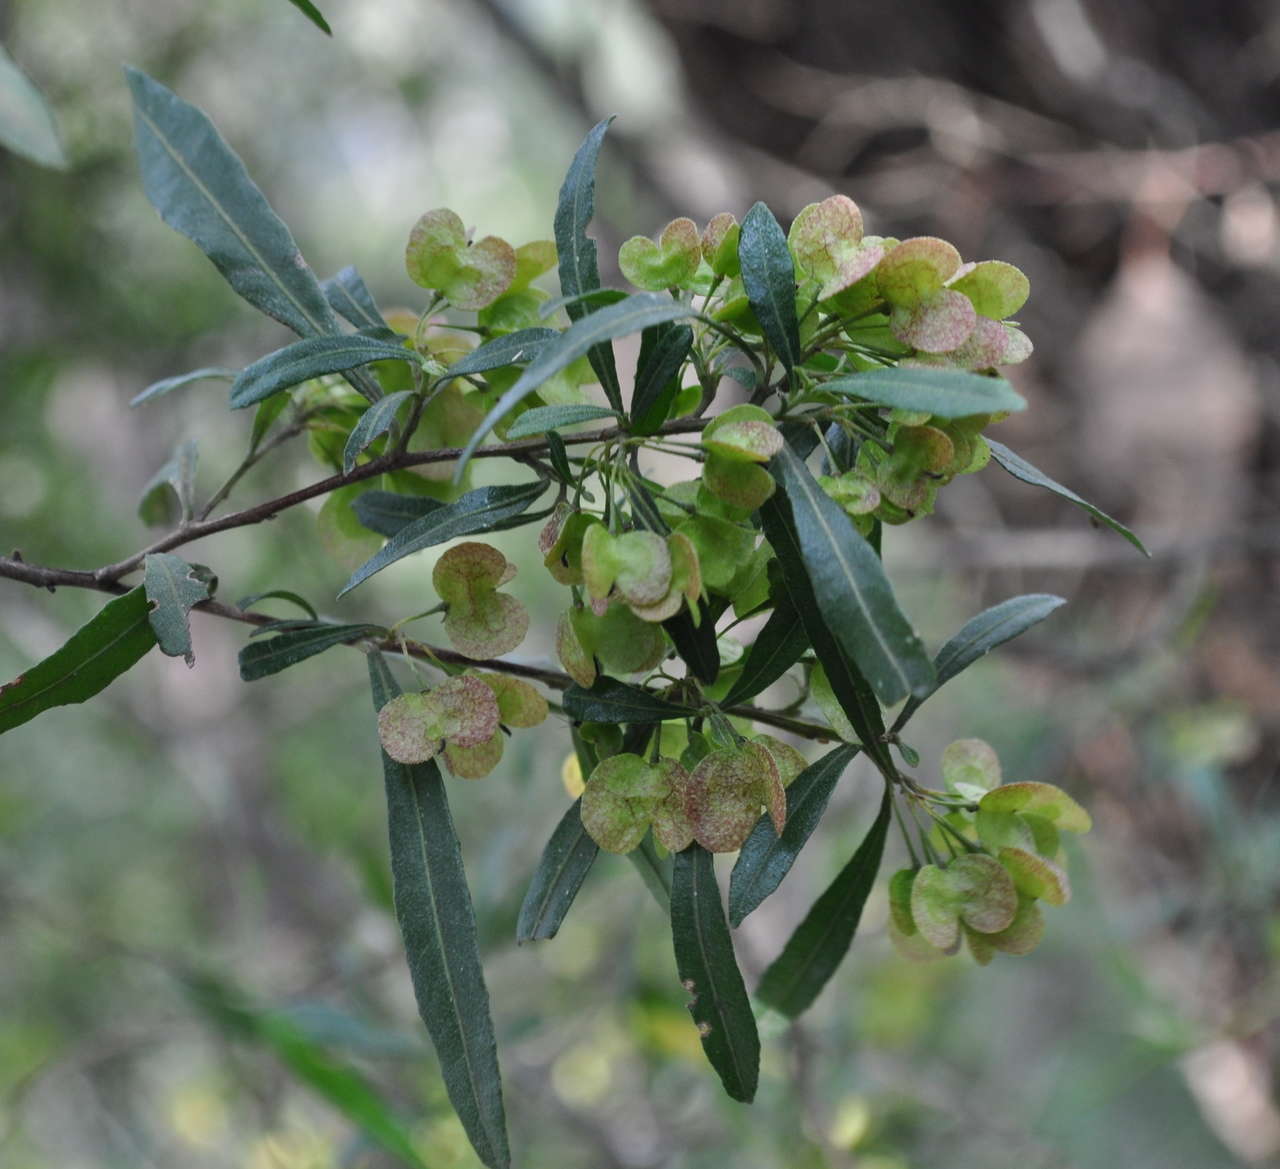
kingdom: Plantae
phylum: Tracheophyta
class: Magnoliopsida
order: Sapindales
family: Sapindaceae
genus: Dodonaea
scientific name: Dodonaea viscosa
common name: Hopbush
